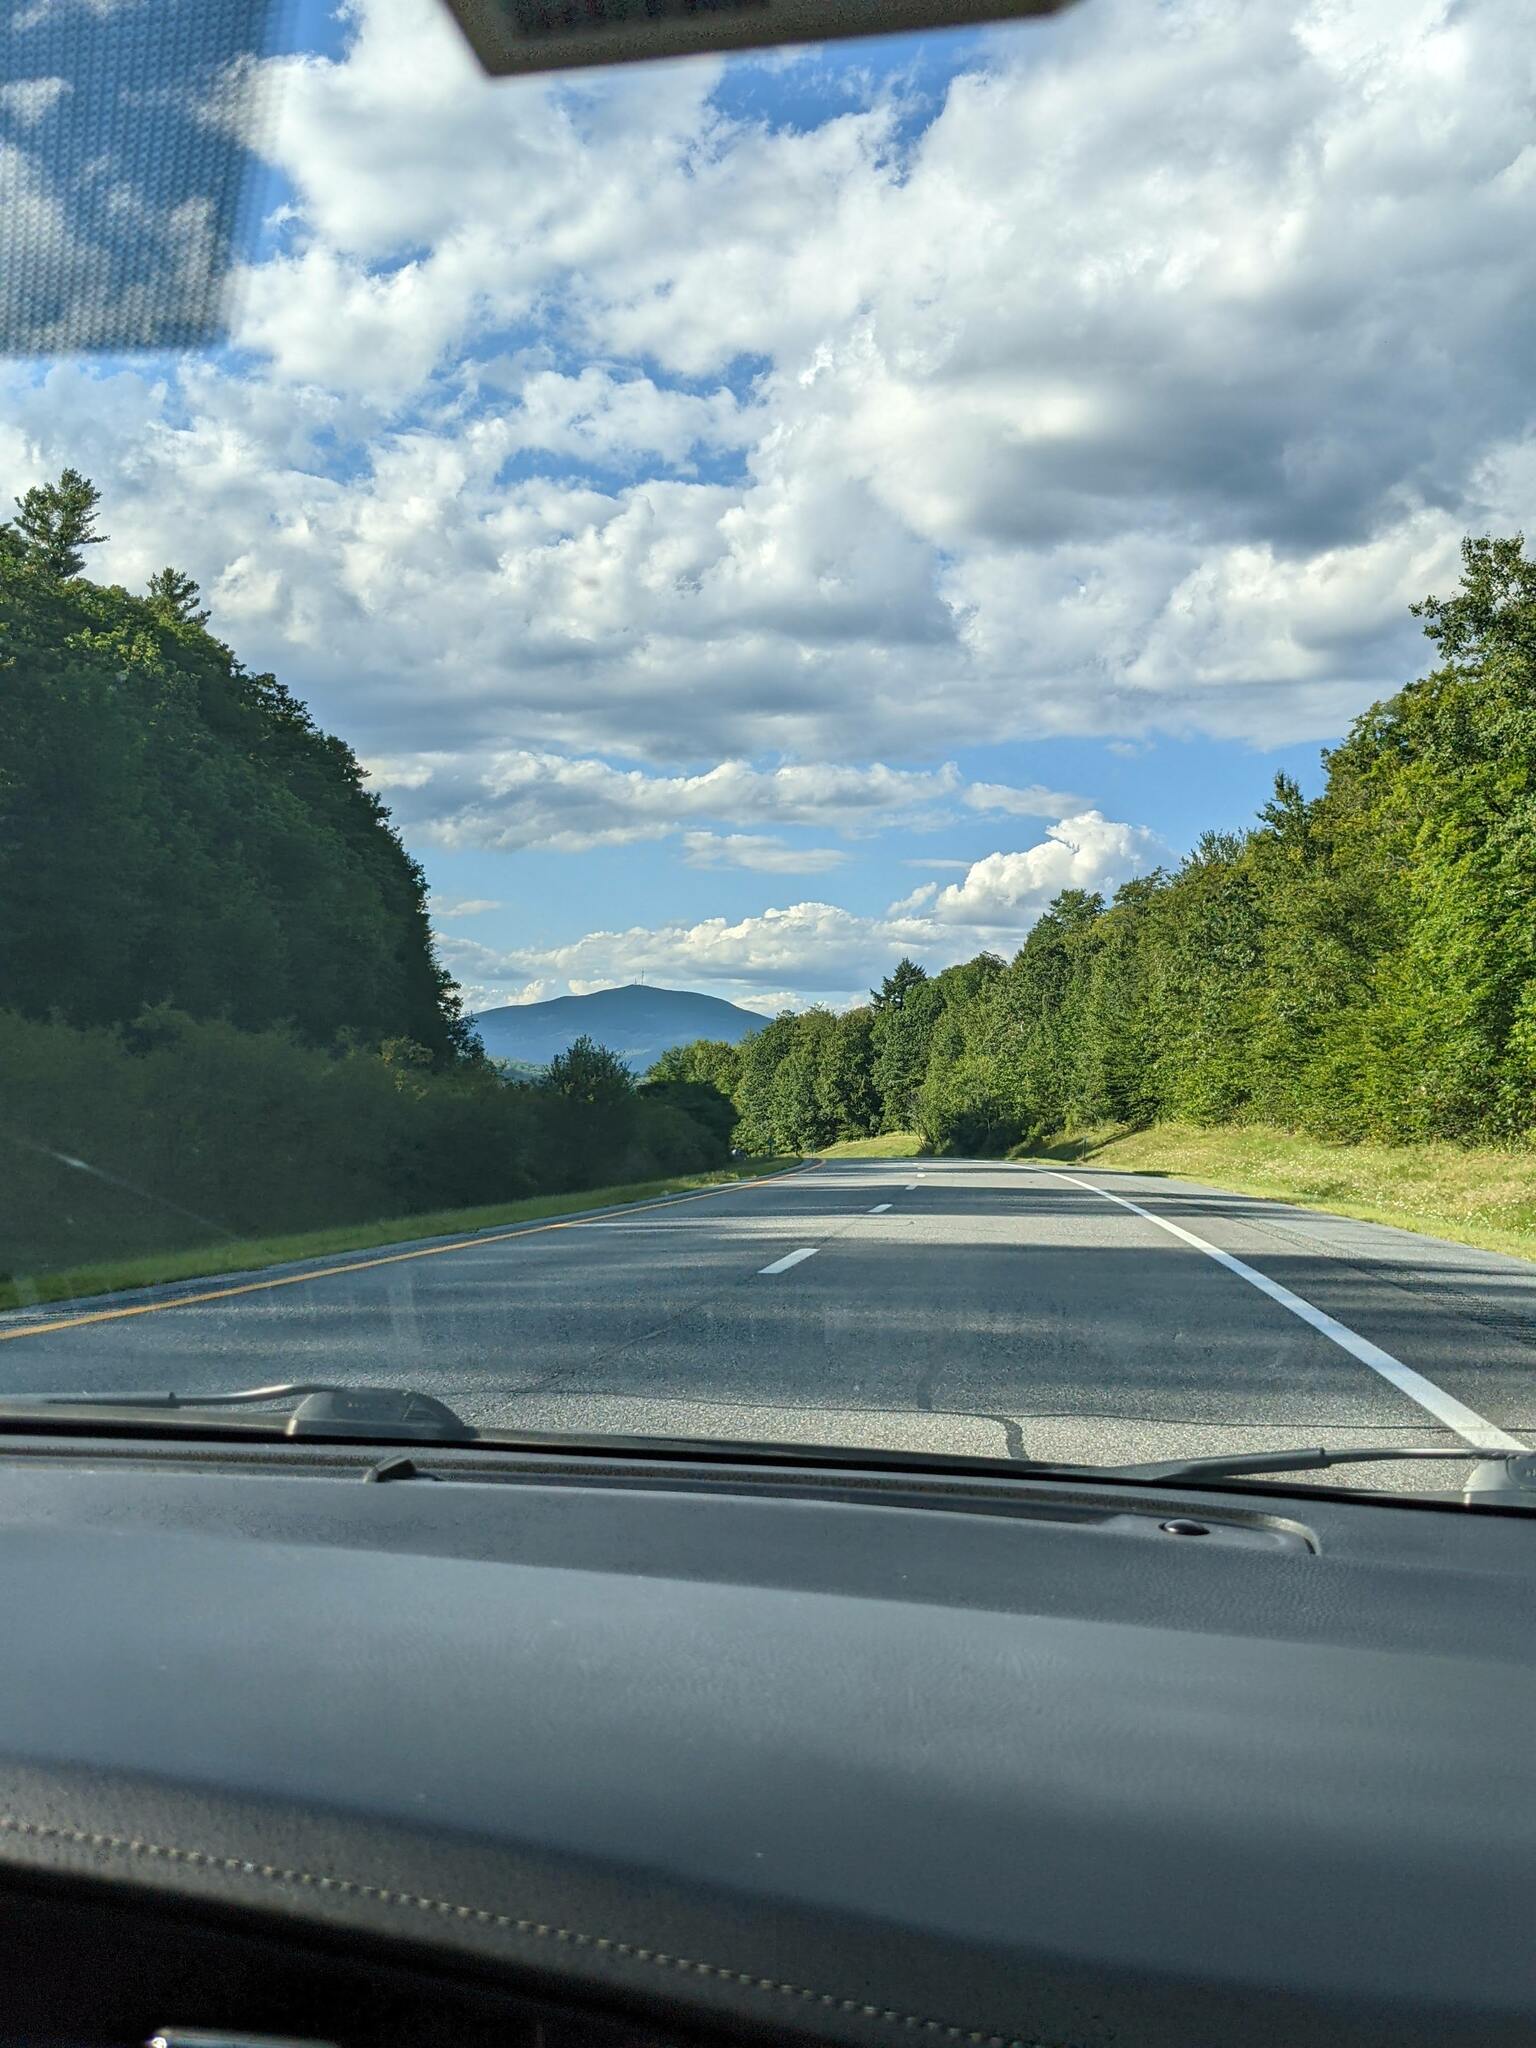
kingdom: Plantae
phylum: Tracheophyta
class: Pinopsida
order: Pinales
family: Pinaceae
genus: Pinus
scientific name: Pinus strobus
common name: Weymouth pine
